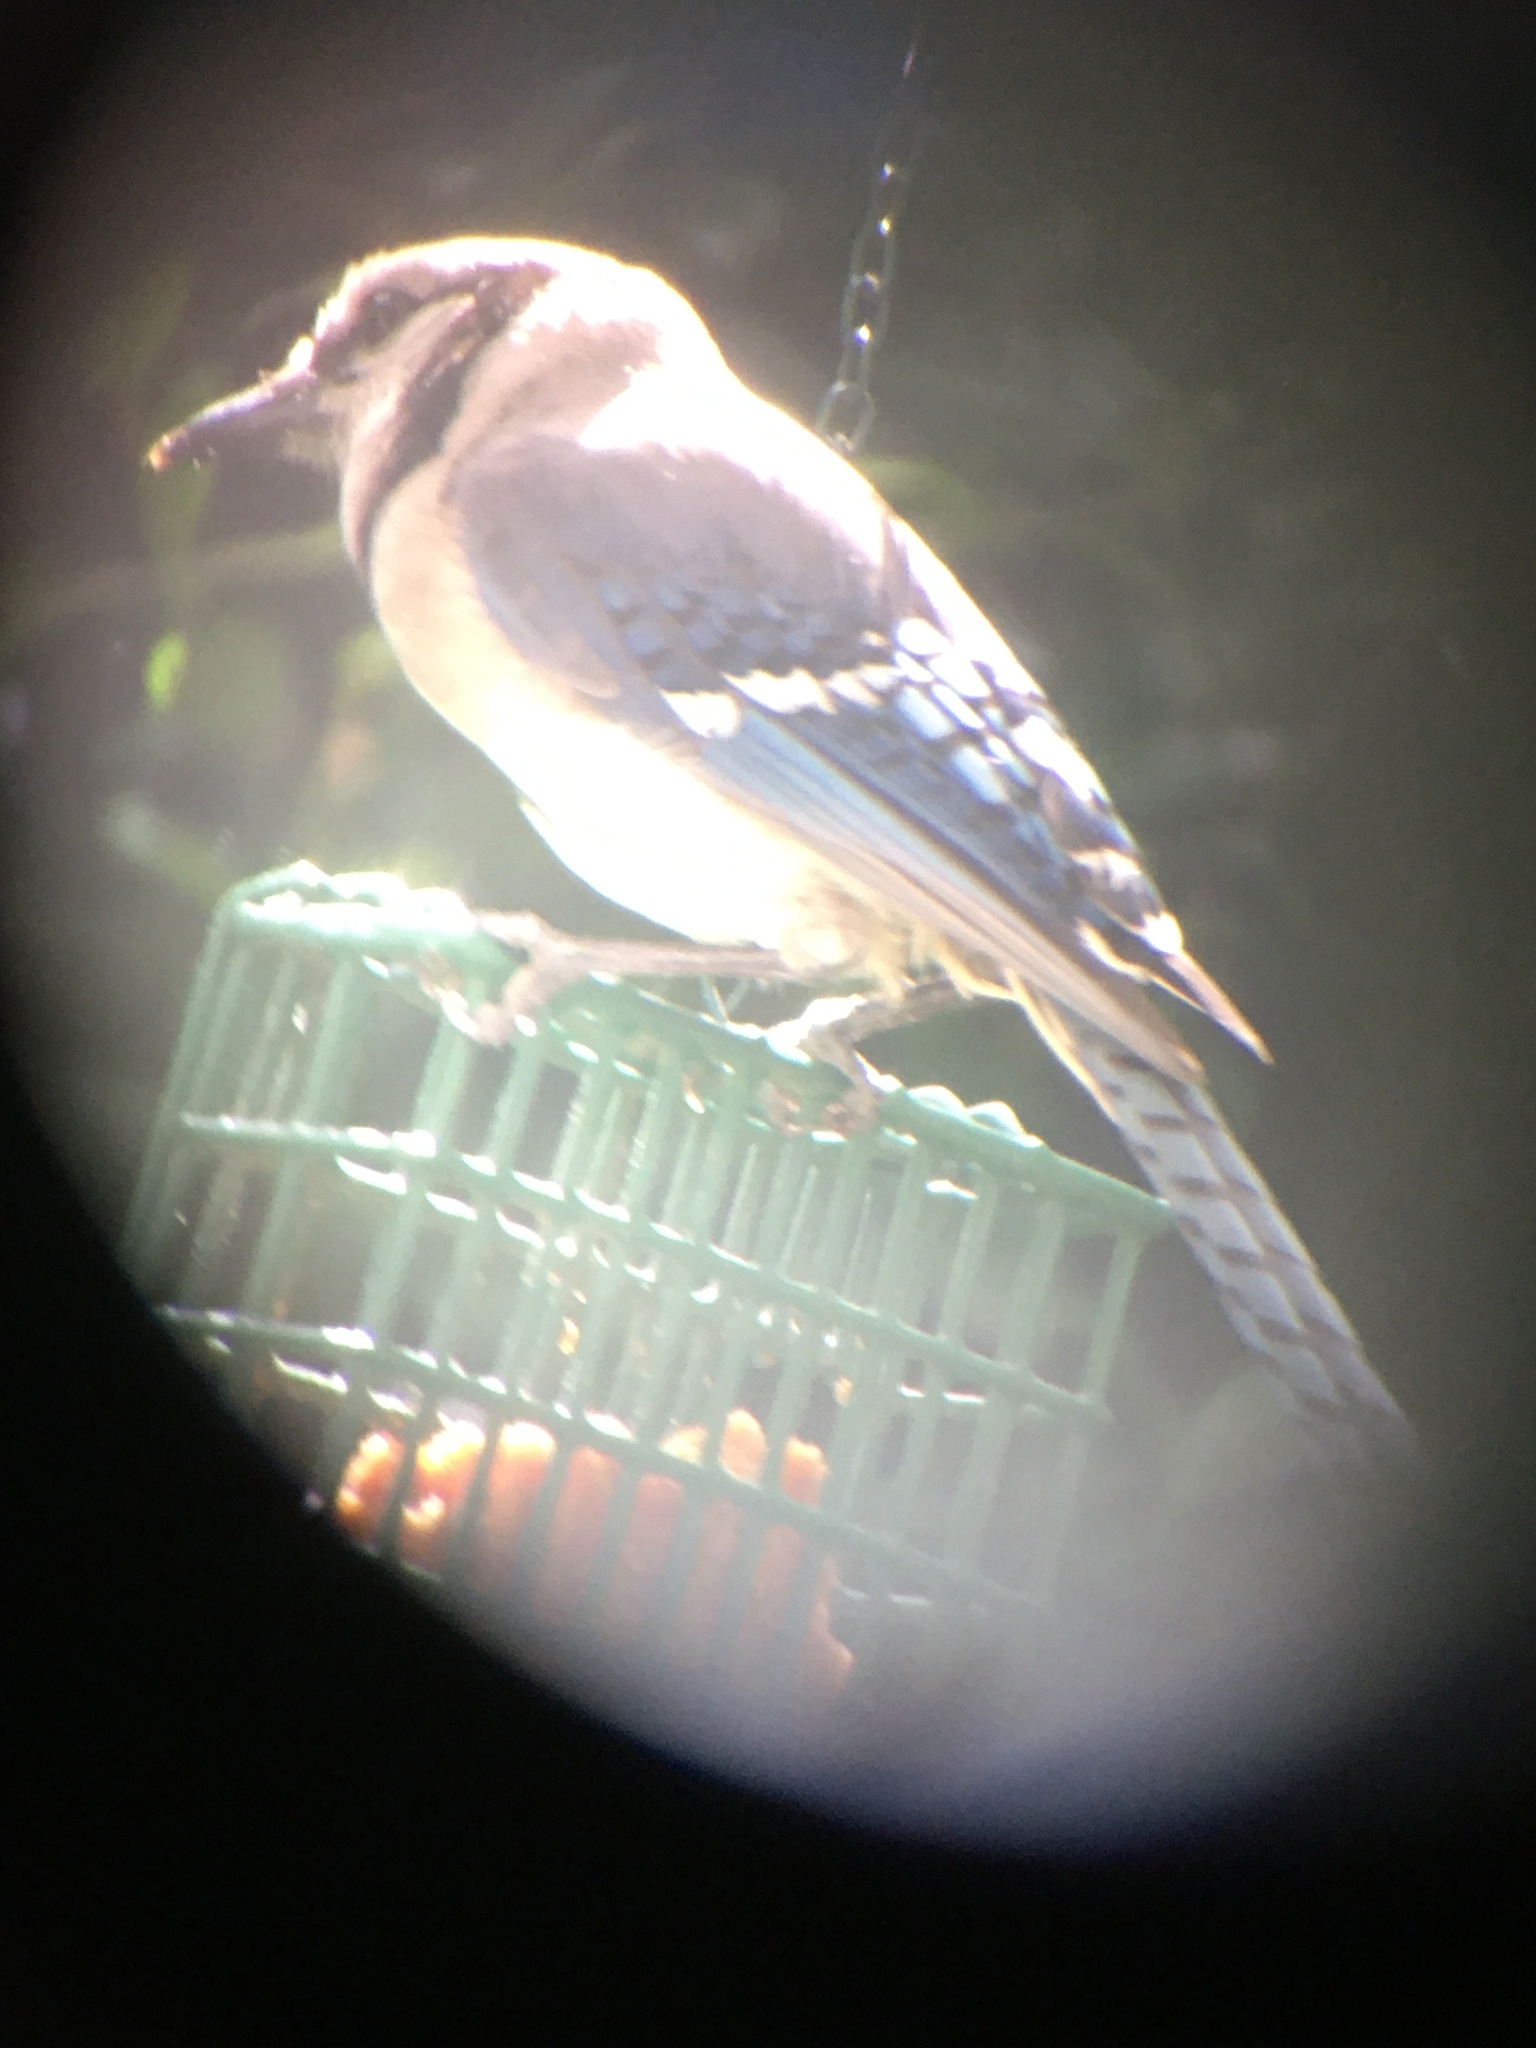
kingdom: Animalia
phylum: Chordata
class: Aves
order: Passeriformes
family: Corvidae
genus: Cyanocitta
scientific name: Cyanocitta cristata
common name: Blue jay
